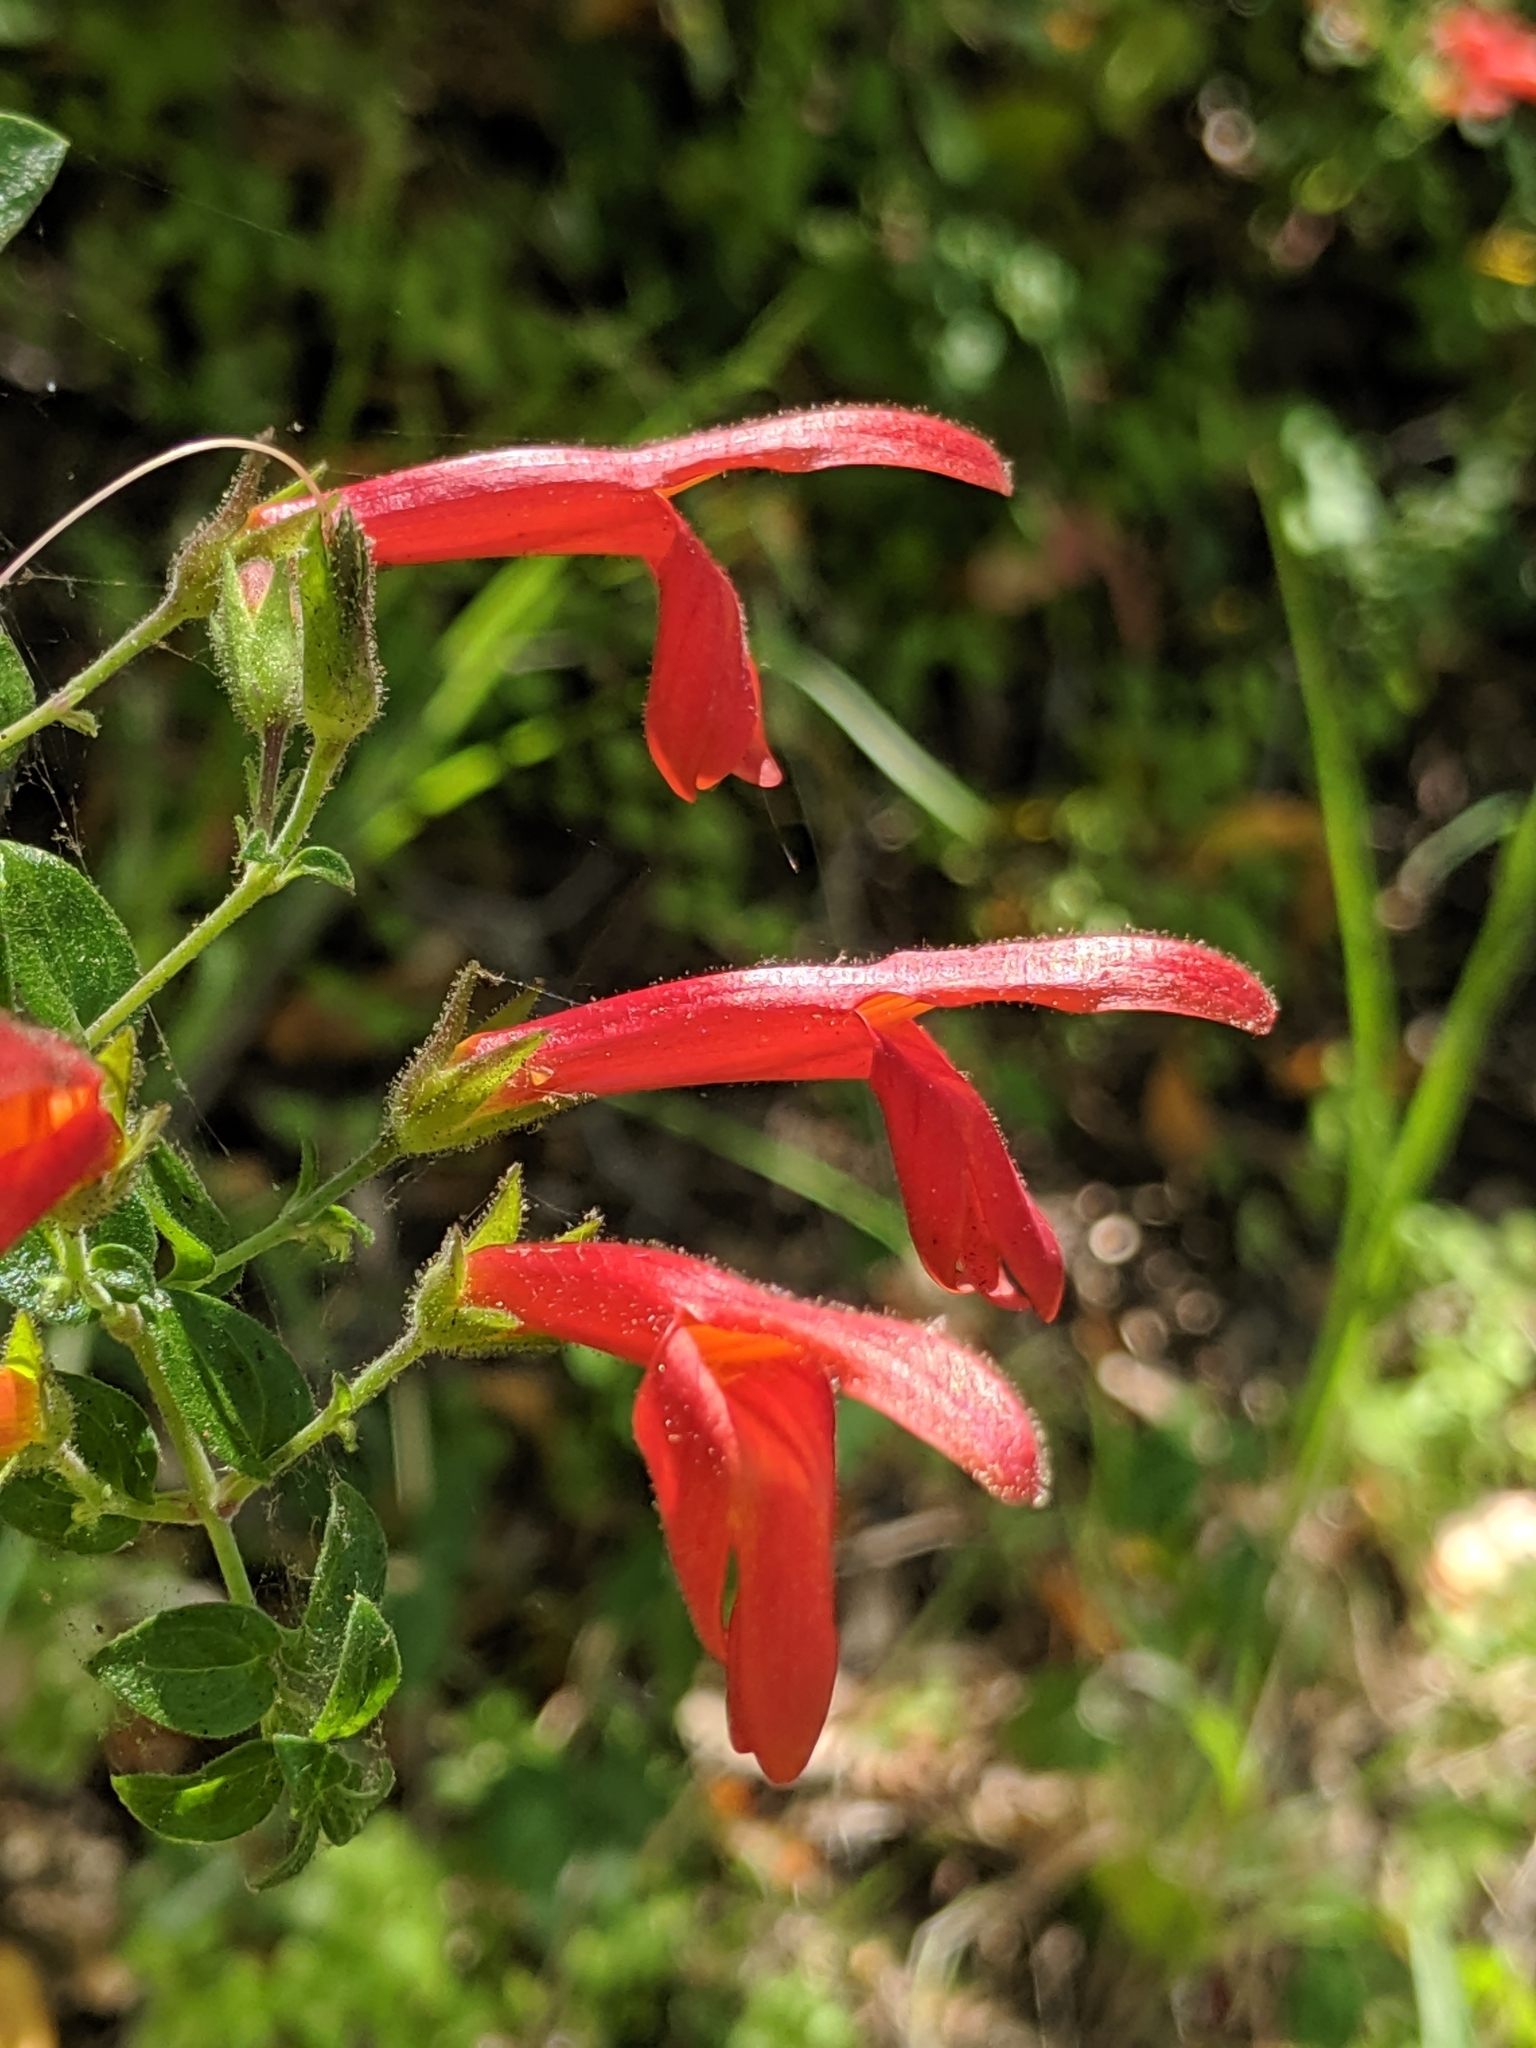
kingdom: Plantae
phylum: Tracheophyta
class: Magnoliopsida
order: Lamiales
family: Plantaginaceae
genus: Keckiella
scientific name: Keckiella cordifolia
